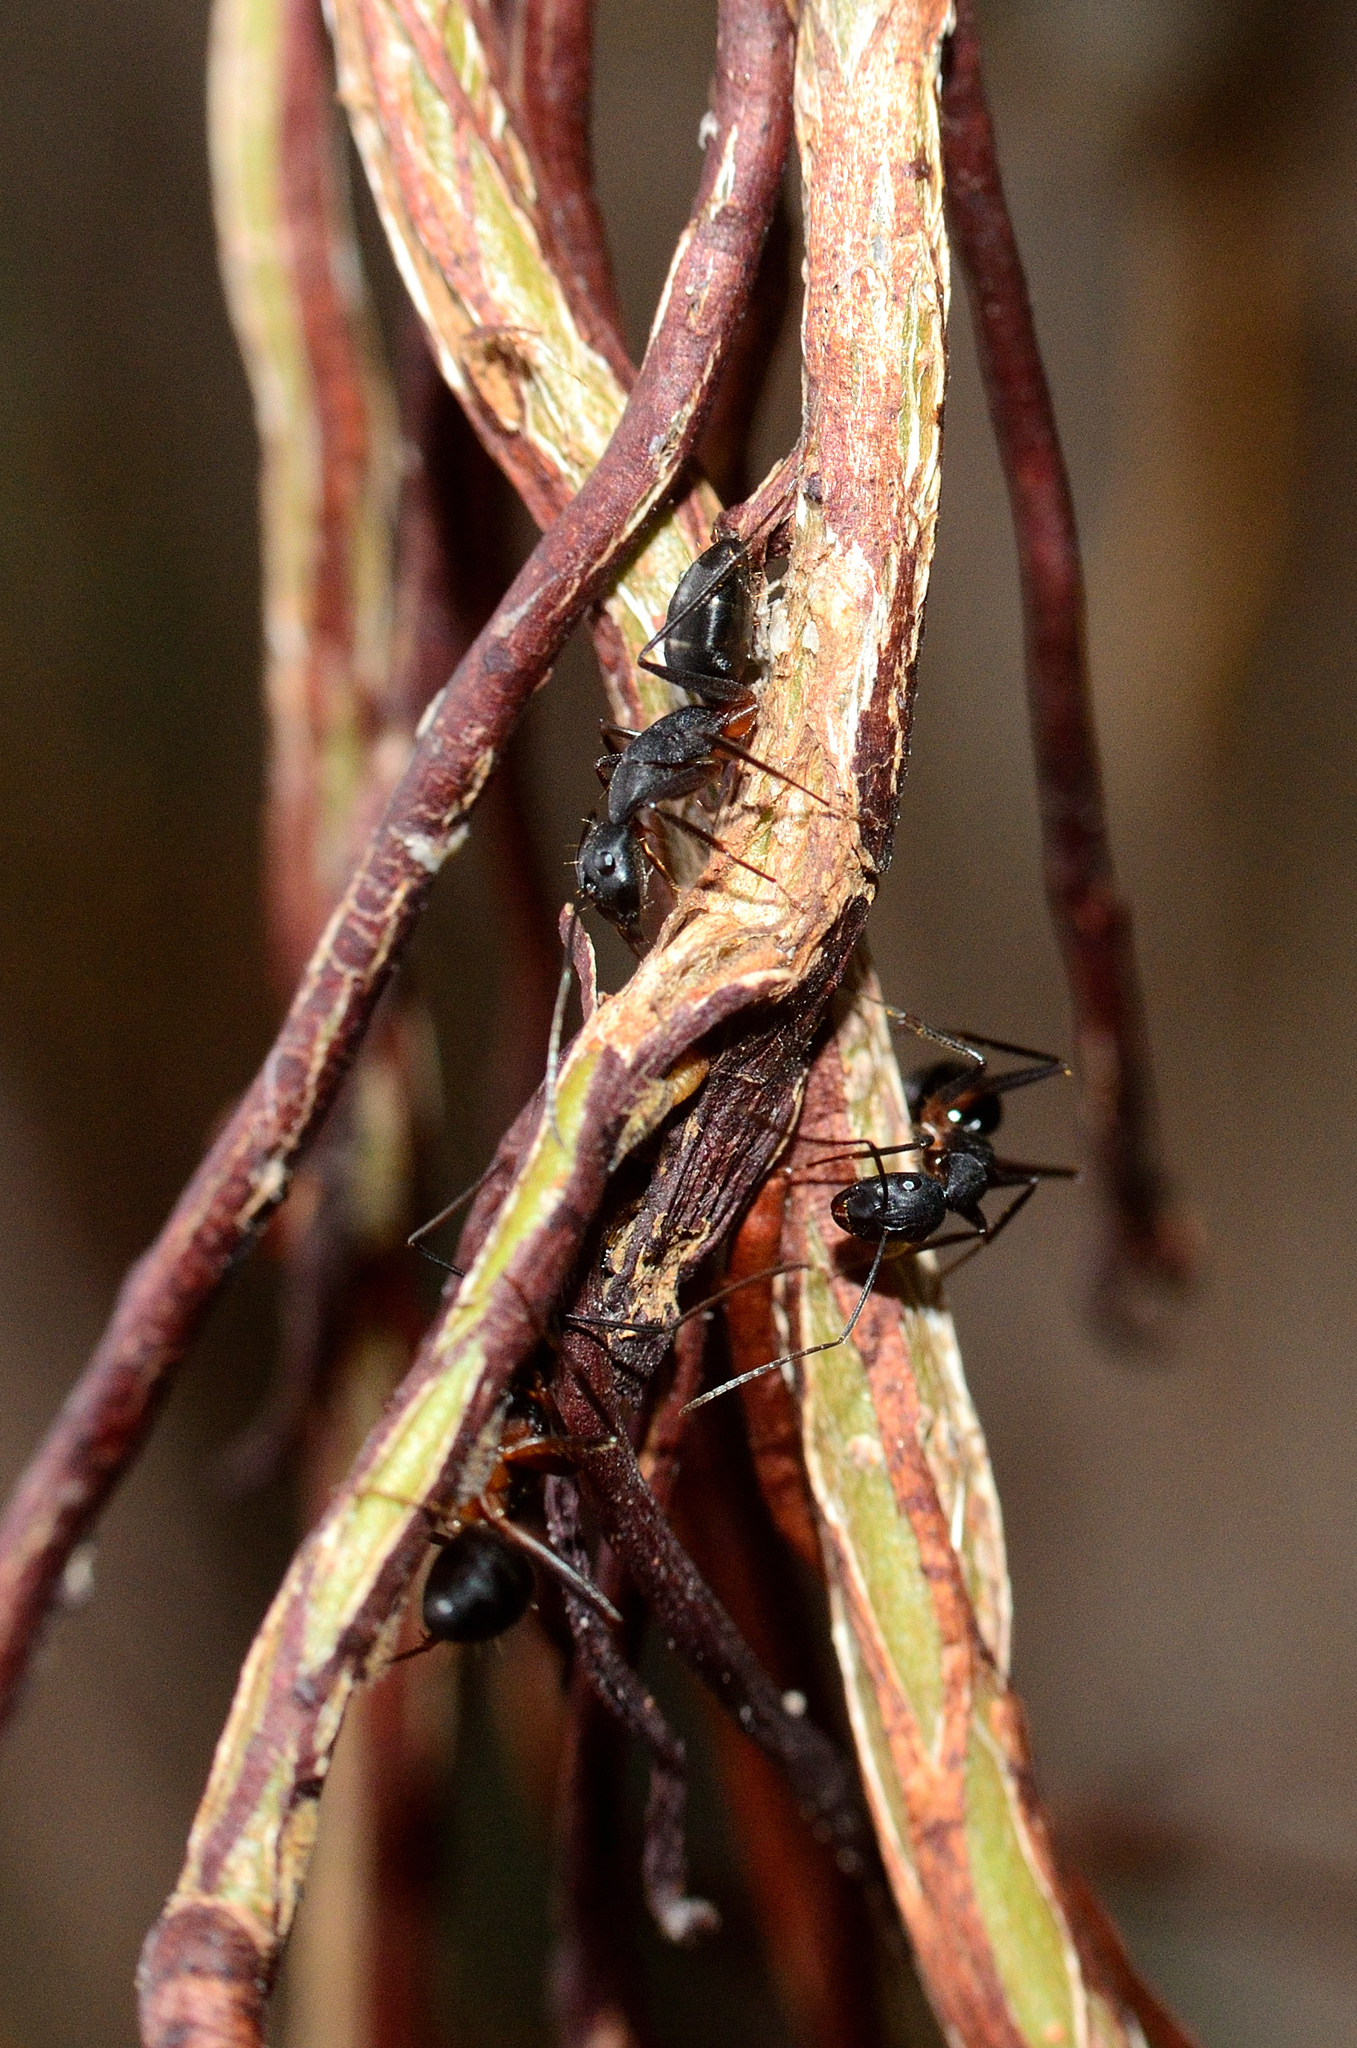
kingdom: Animalia
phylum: Arthropoda
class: Insecta
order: Hymenoptera
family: Formicidae
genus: Camponotus
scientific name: Camponotus compressus
